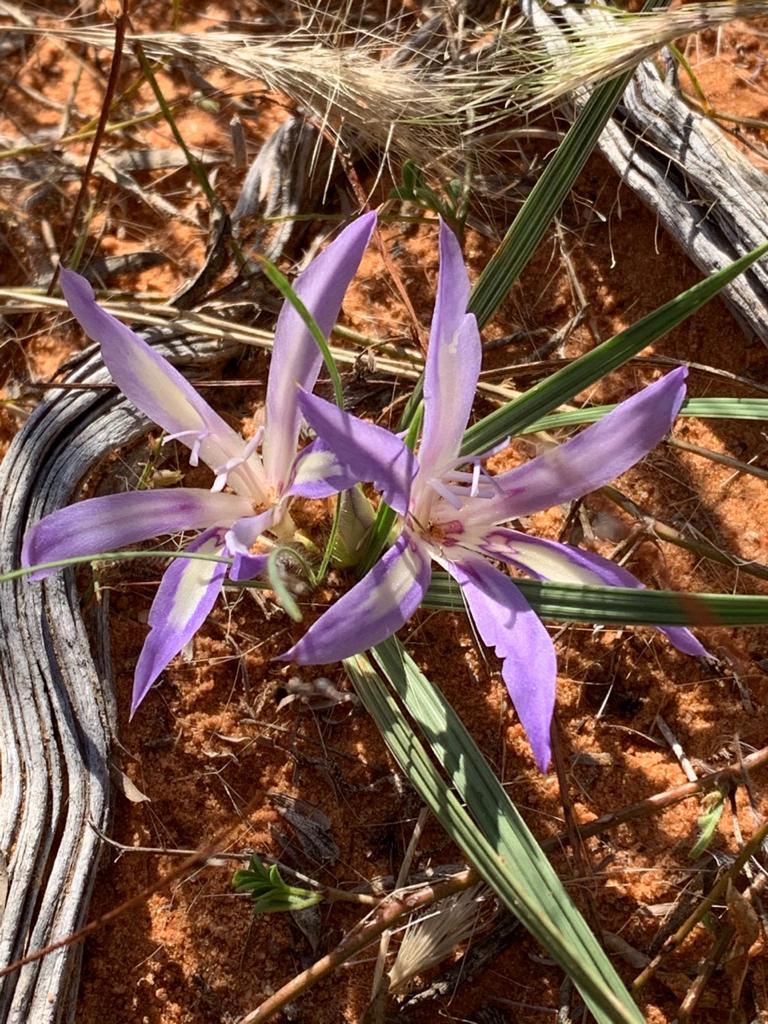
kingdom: Plantae
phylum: Tracheophyta
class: Liliopsida
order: Asparagales
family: Iridaceae
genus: Babiana
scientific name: Babiana hypogaea
